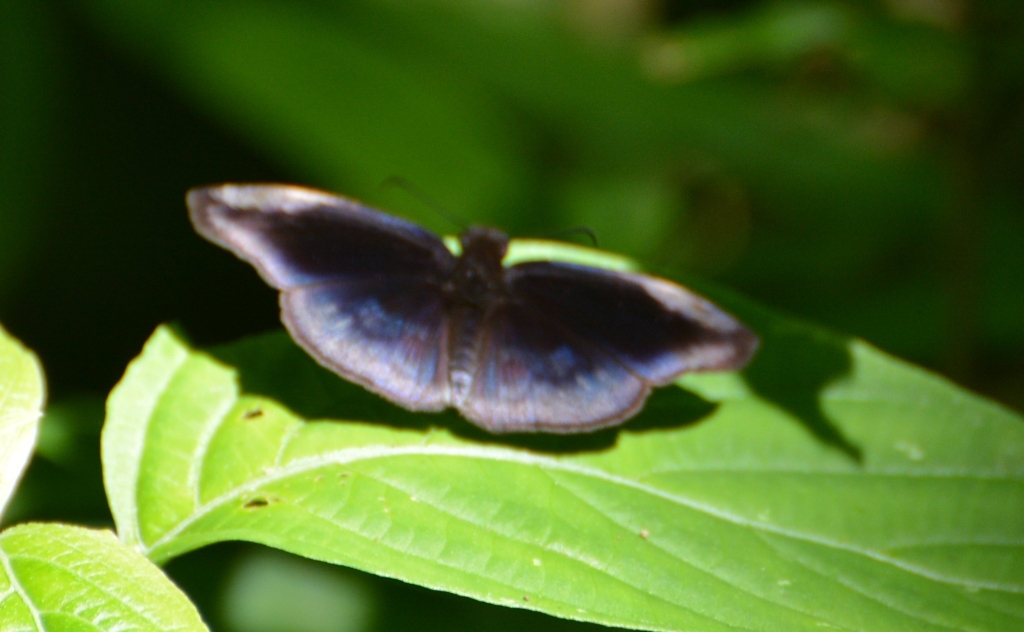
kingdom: Animalia
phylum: Arthropoda
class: Insecta
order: Lepidoptera
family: Hesperiidae
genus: Anastrus
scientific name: Anastrus obscurus
